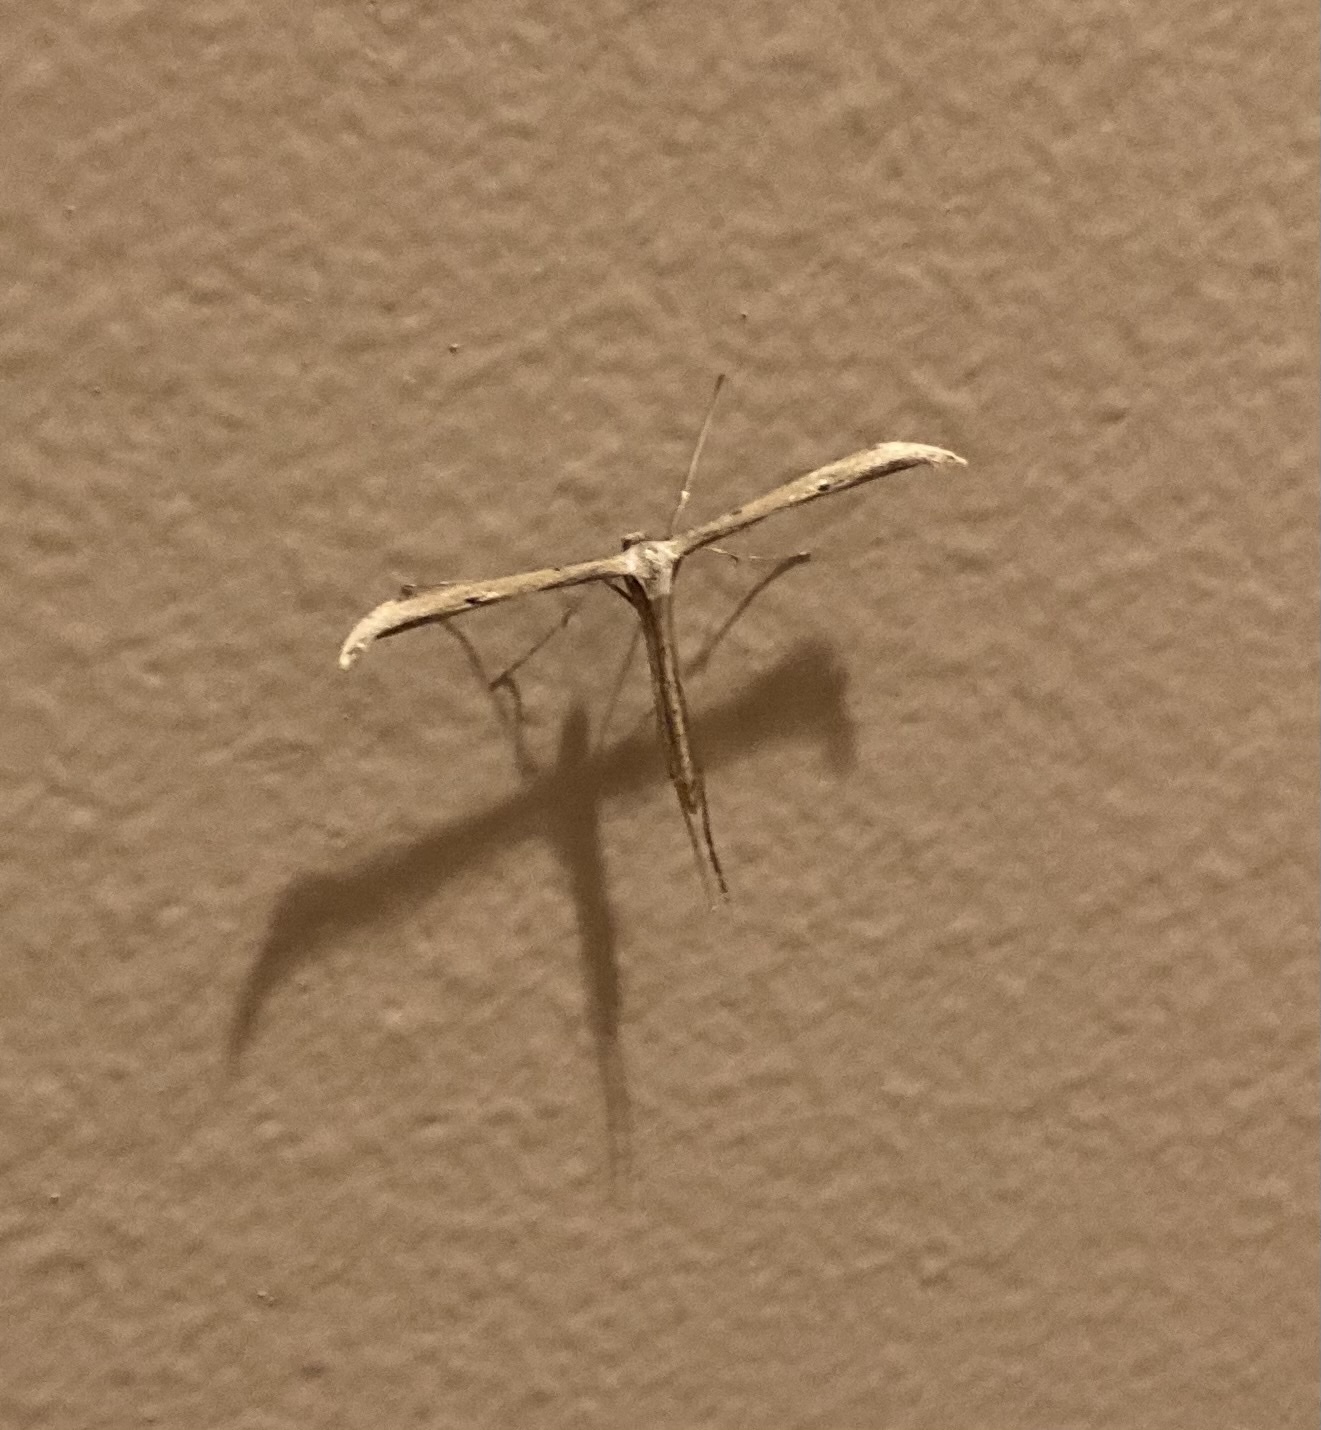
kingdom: Animalia
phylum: Arthropoda
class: Insecta
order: Lepidoptera
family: Pterophoridae
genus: Emmelina
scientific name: Emmelina monodactyla
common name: Common plume
